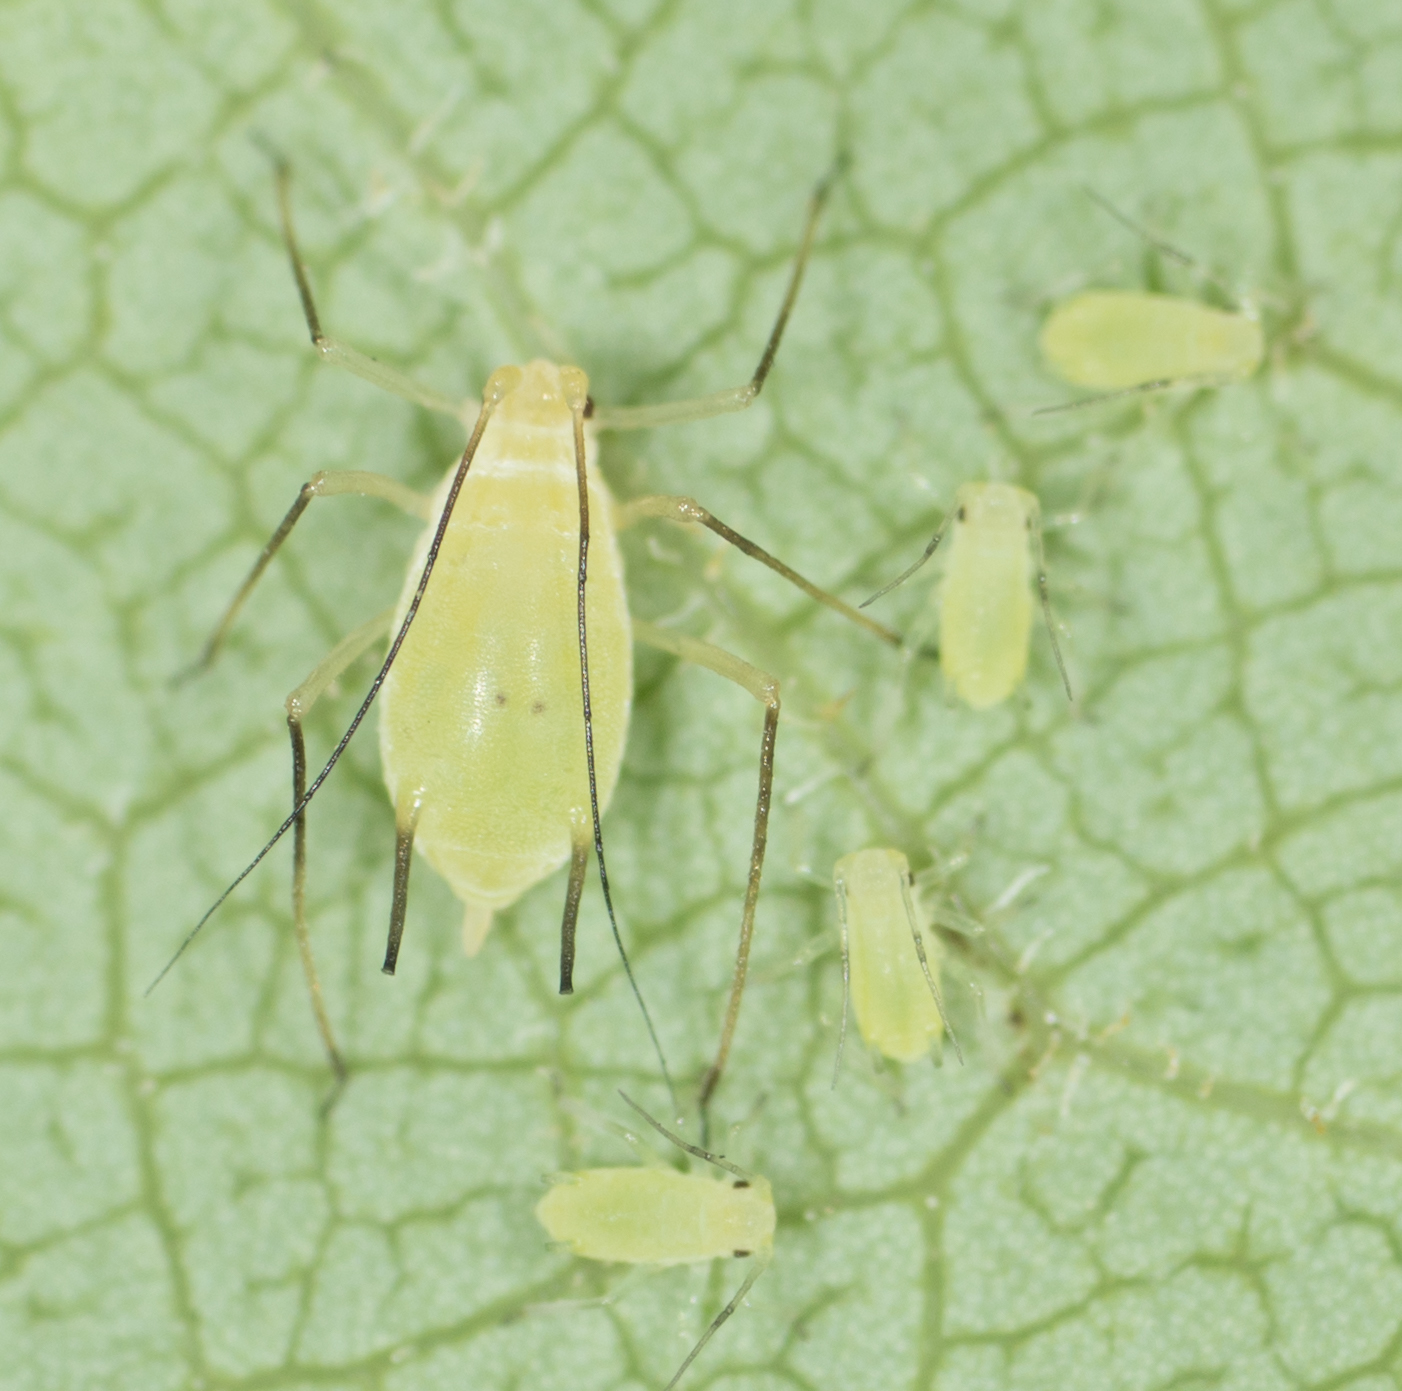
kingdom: Animalia
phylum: Arthropoda
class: Insecta
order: Hemiptera
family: Aphididae
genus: Illinoia
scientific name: Illinoia liriodendri
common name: Tuliptree aphid
